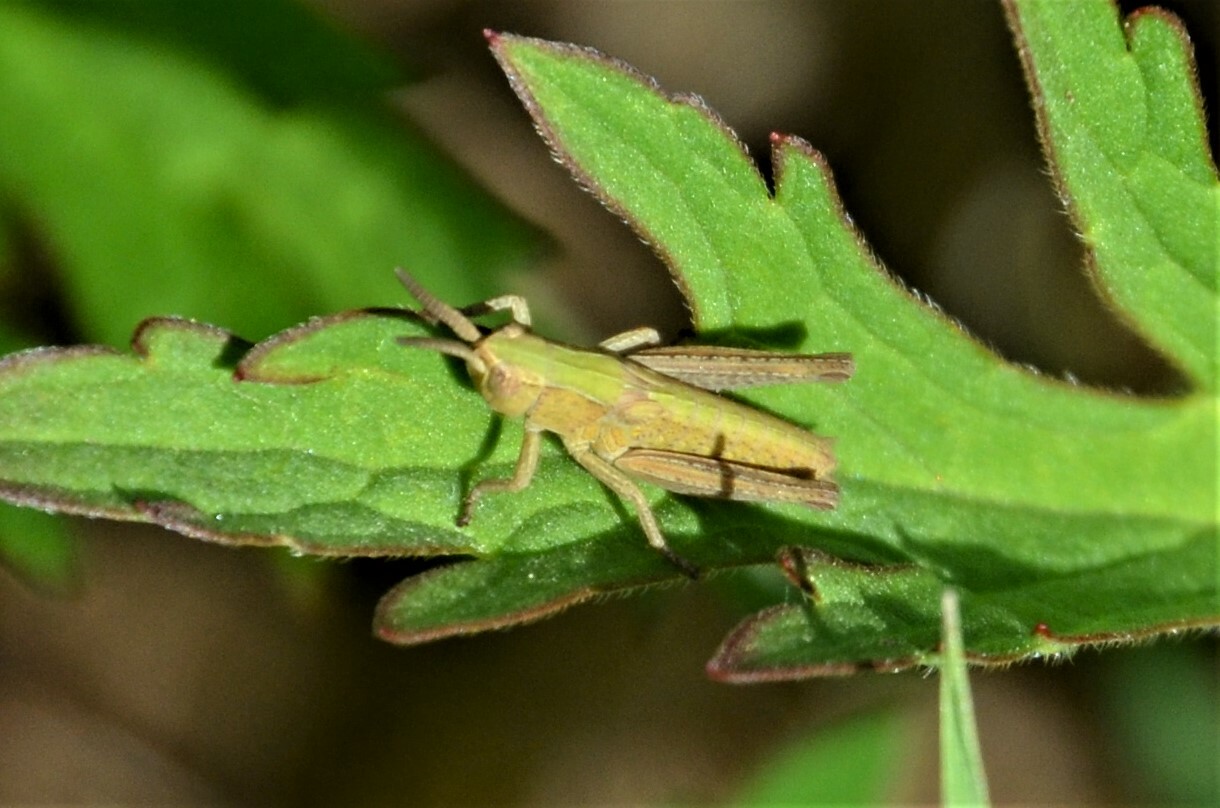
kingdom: Animalia
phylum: Arthropoda
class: Insecta
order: Orthoptera
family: Acrididae
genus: Chorthippus
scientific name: Chorthippus dorsatus
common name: Steppe grasshopper
